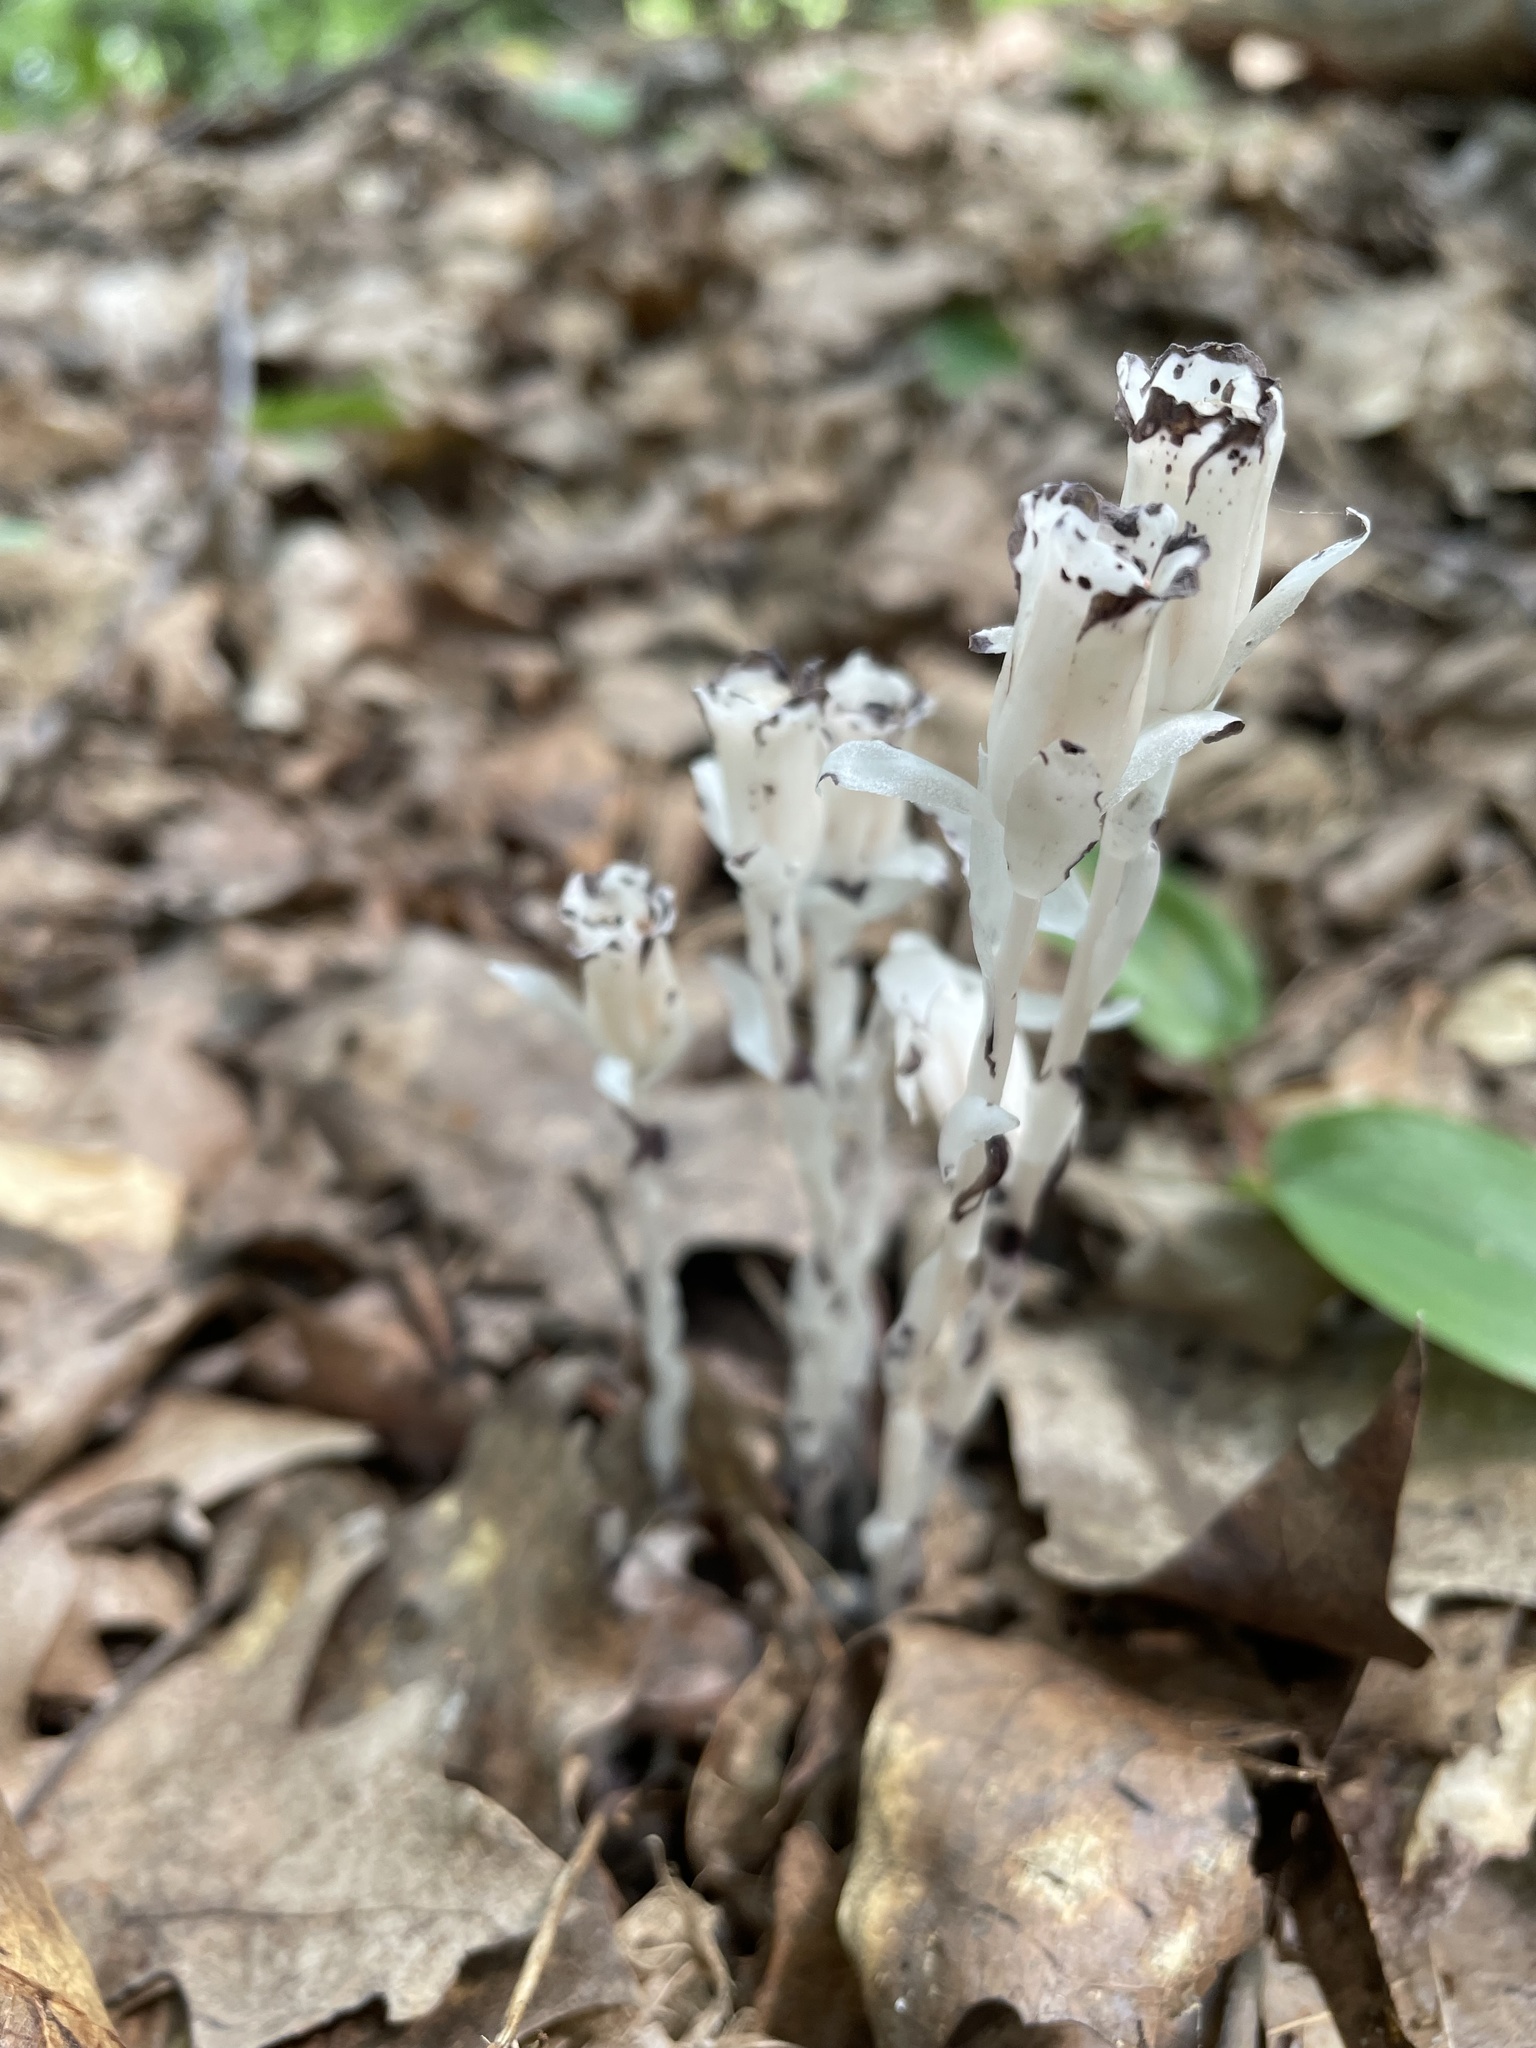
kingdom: Plantae
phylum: Tracheophyta
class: Magnoliopsida
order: Ericales
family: Ericaceae
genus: Monotropa
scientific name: Monotropa uniflora
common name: Convulsion root
